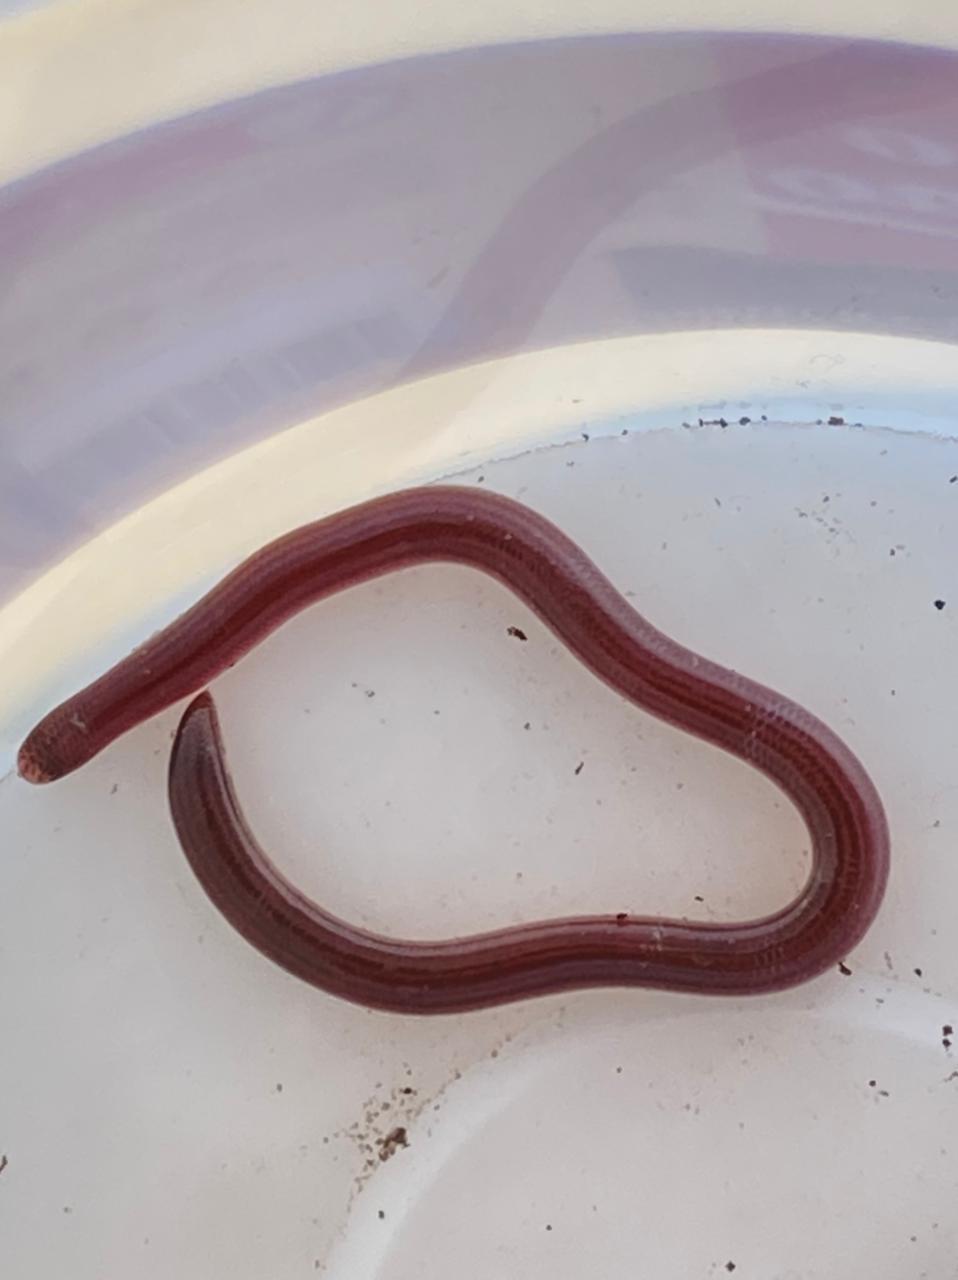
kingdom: Animalia
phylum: Chordata
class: Squamata
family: Typhlopidae
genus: Amerotyphlops
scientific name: Amerotyphlops brongersmianus
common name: Brongersma's worm snake
